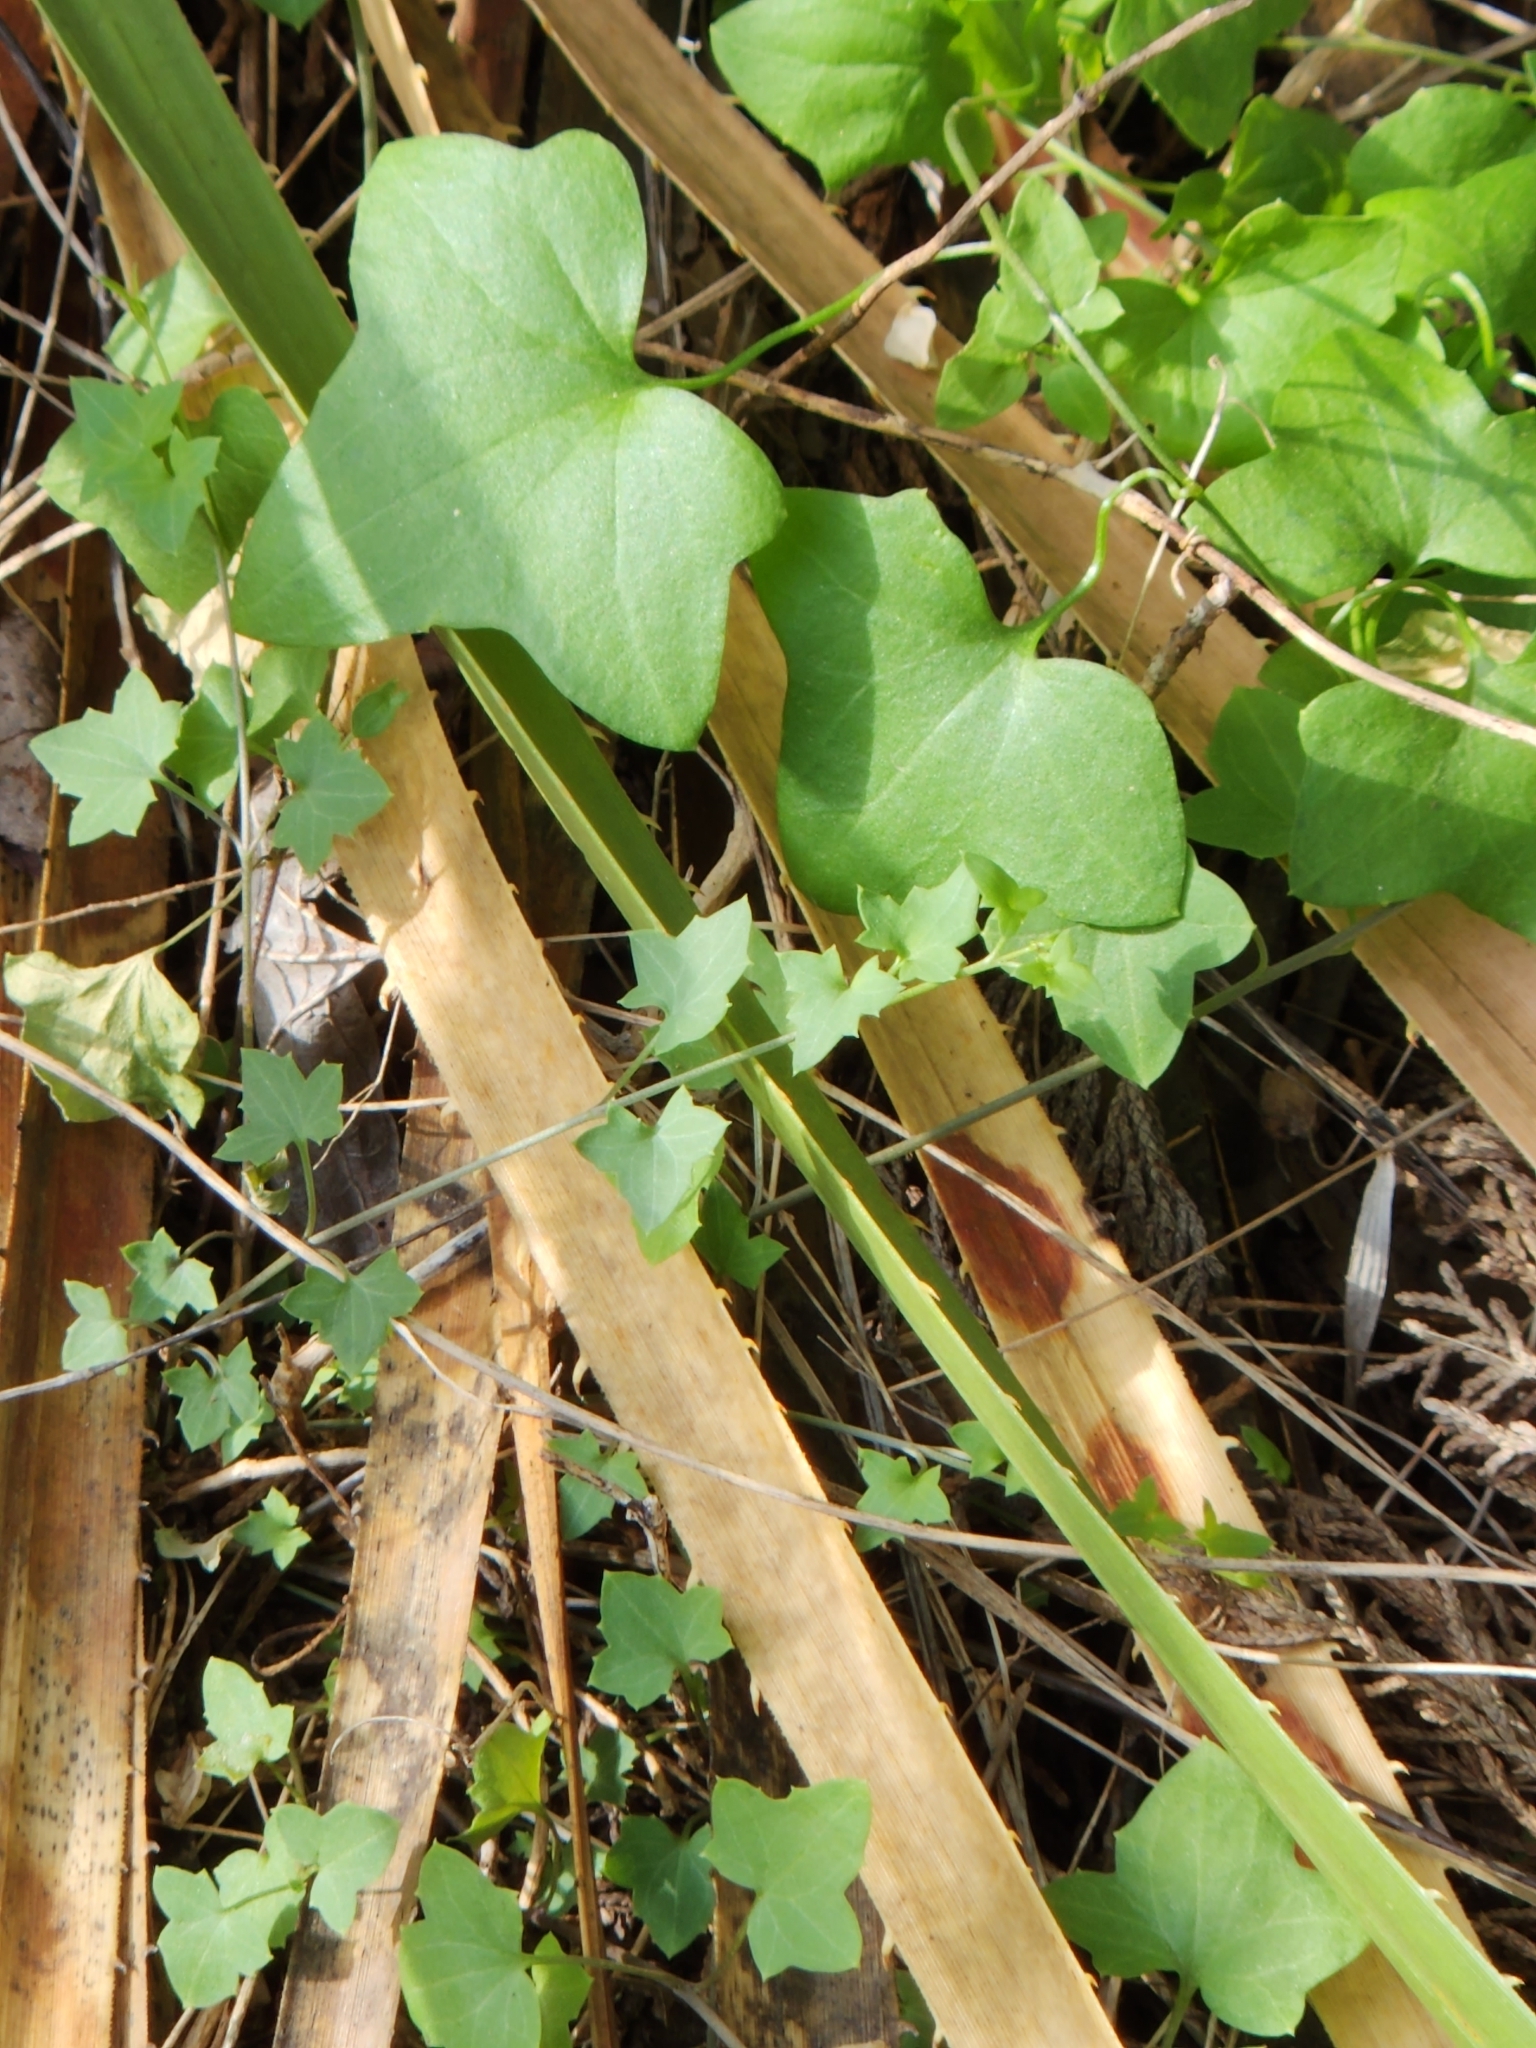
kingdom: Plantae
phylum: Tracheophyta
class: Magnoliopsida
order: Lamiales
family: Plantaginaceae
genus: Maurandella
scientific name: Maurandella antirrhiniflora
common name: Violet twining-snapdragon
